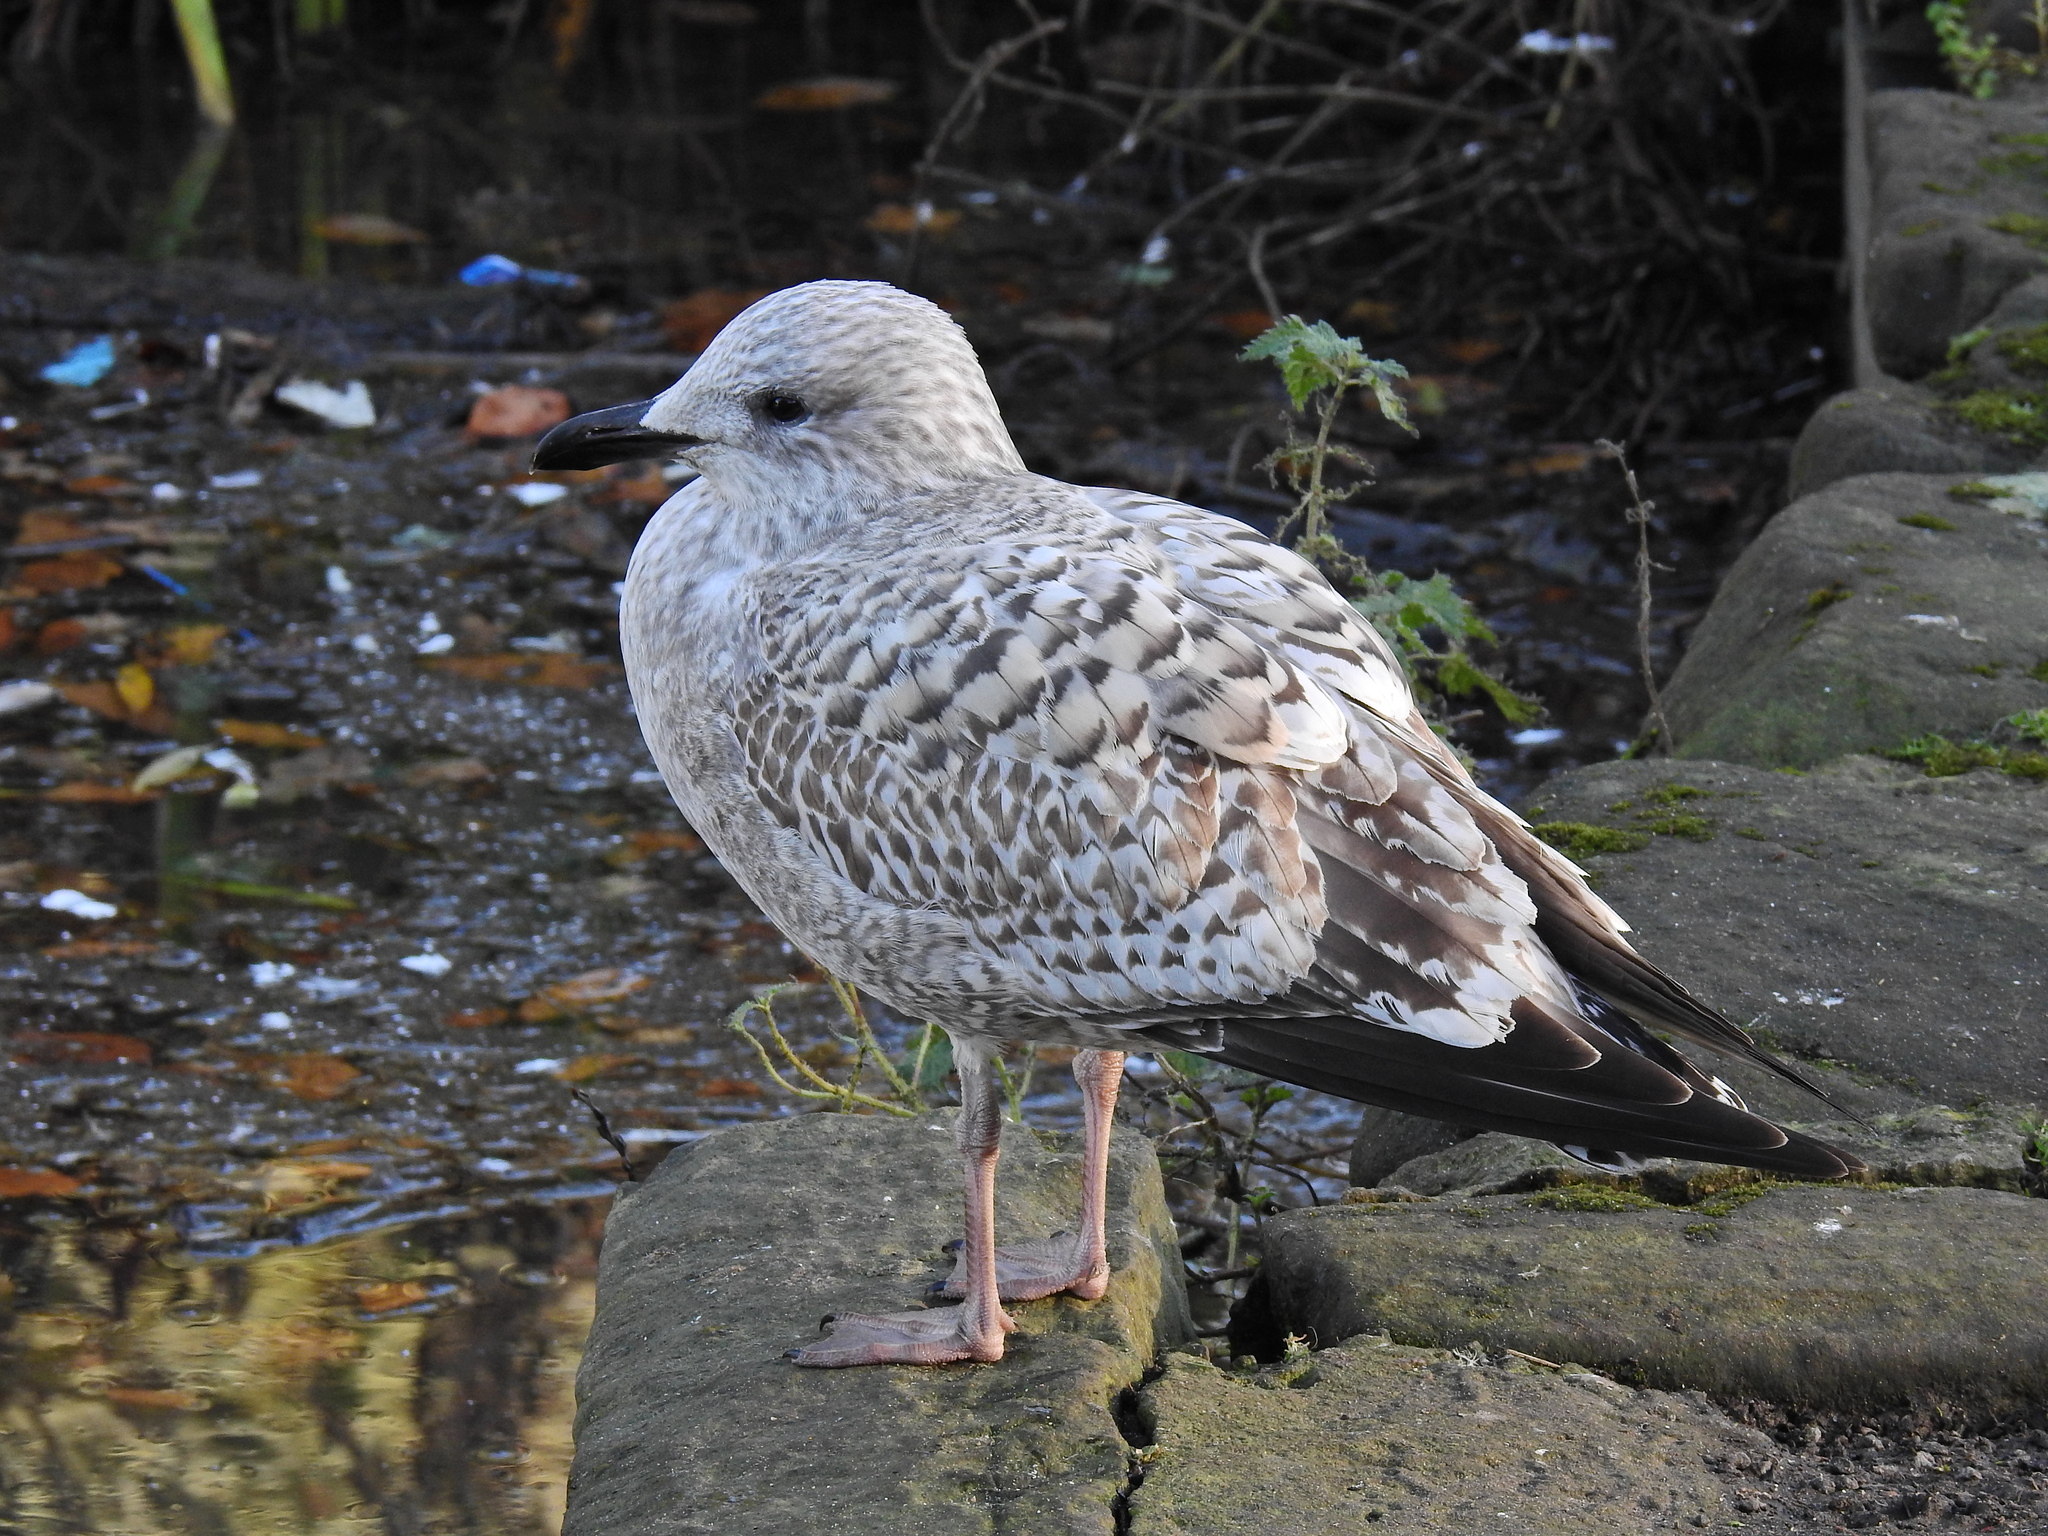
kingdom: Animalia
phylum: Chordata
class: Aves
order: Charadriiformes
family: Laridae
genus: Larus
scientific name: Larus argentatus
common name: Herring gull
